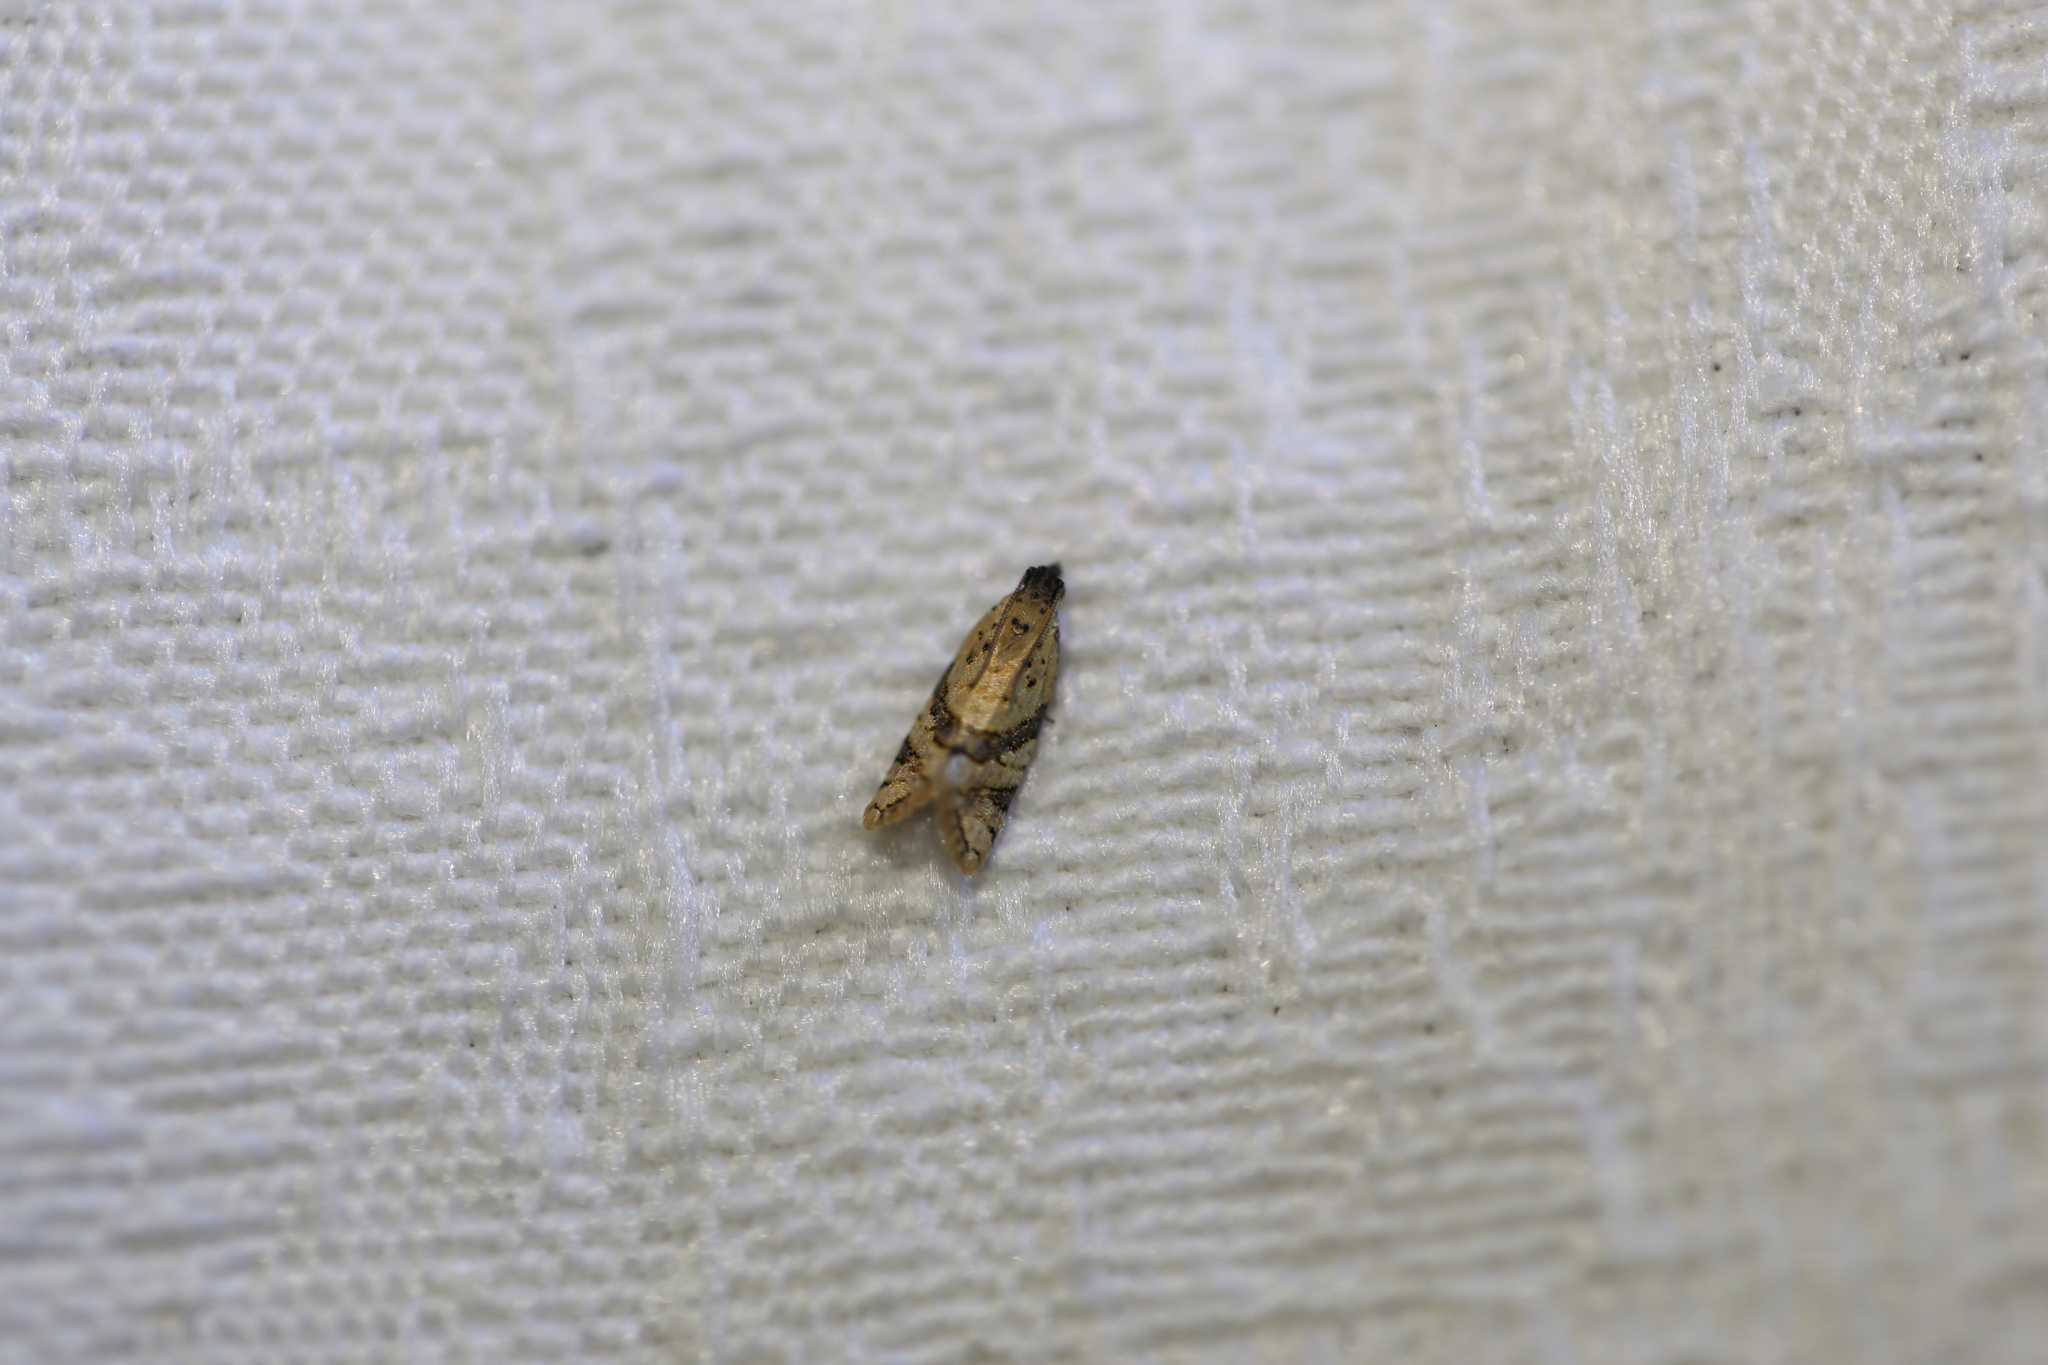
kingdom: Animalia
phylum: Arthropoda
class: Insecta
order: Lepidoptera
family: Tortricidae
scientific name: Tortricidae
